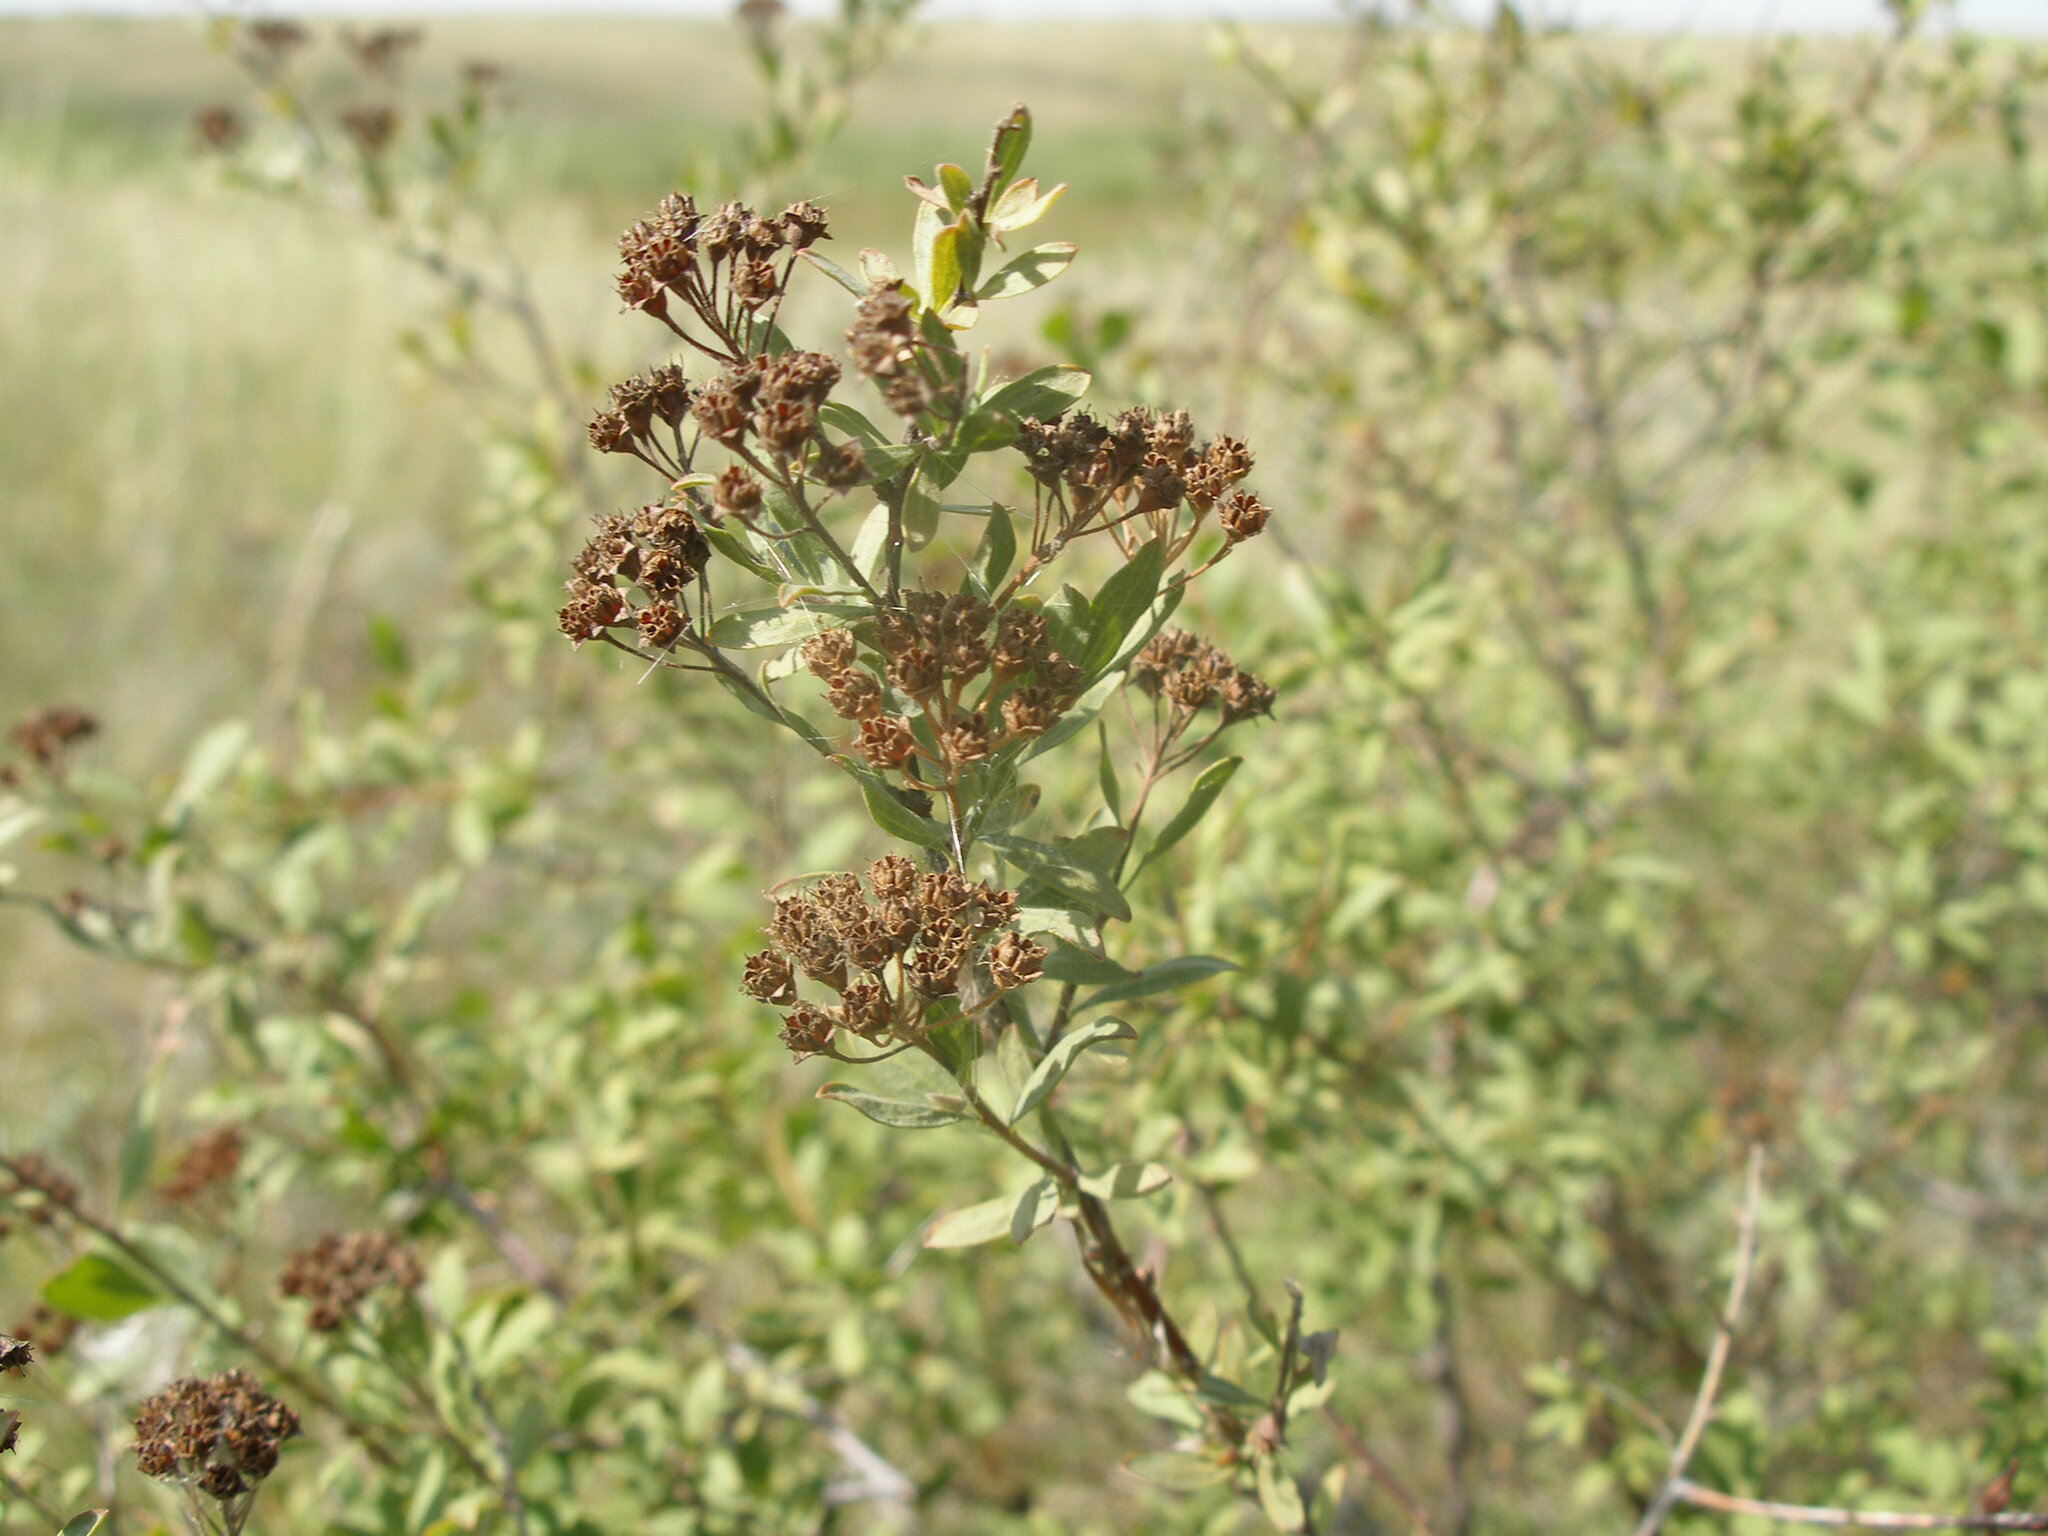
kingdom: Plantae
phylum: Tracheophyta
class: Magnoliopsida
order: Rosales
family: Rosaceae
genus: Spiraea
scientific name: Spiraea crenata
